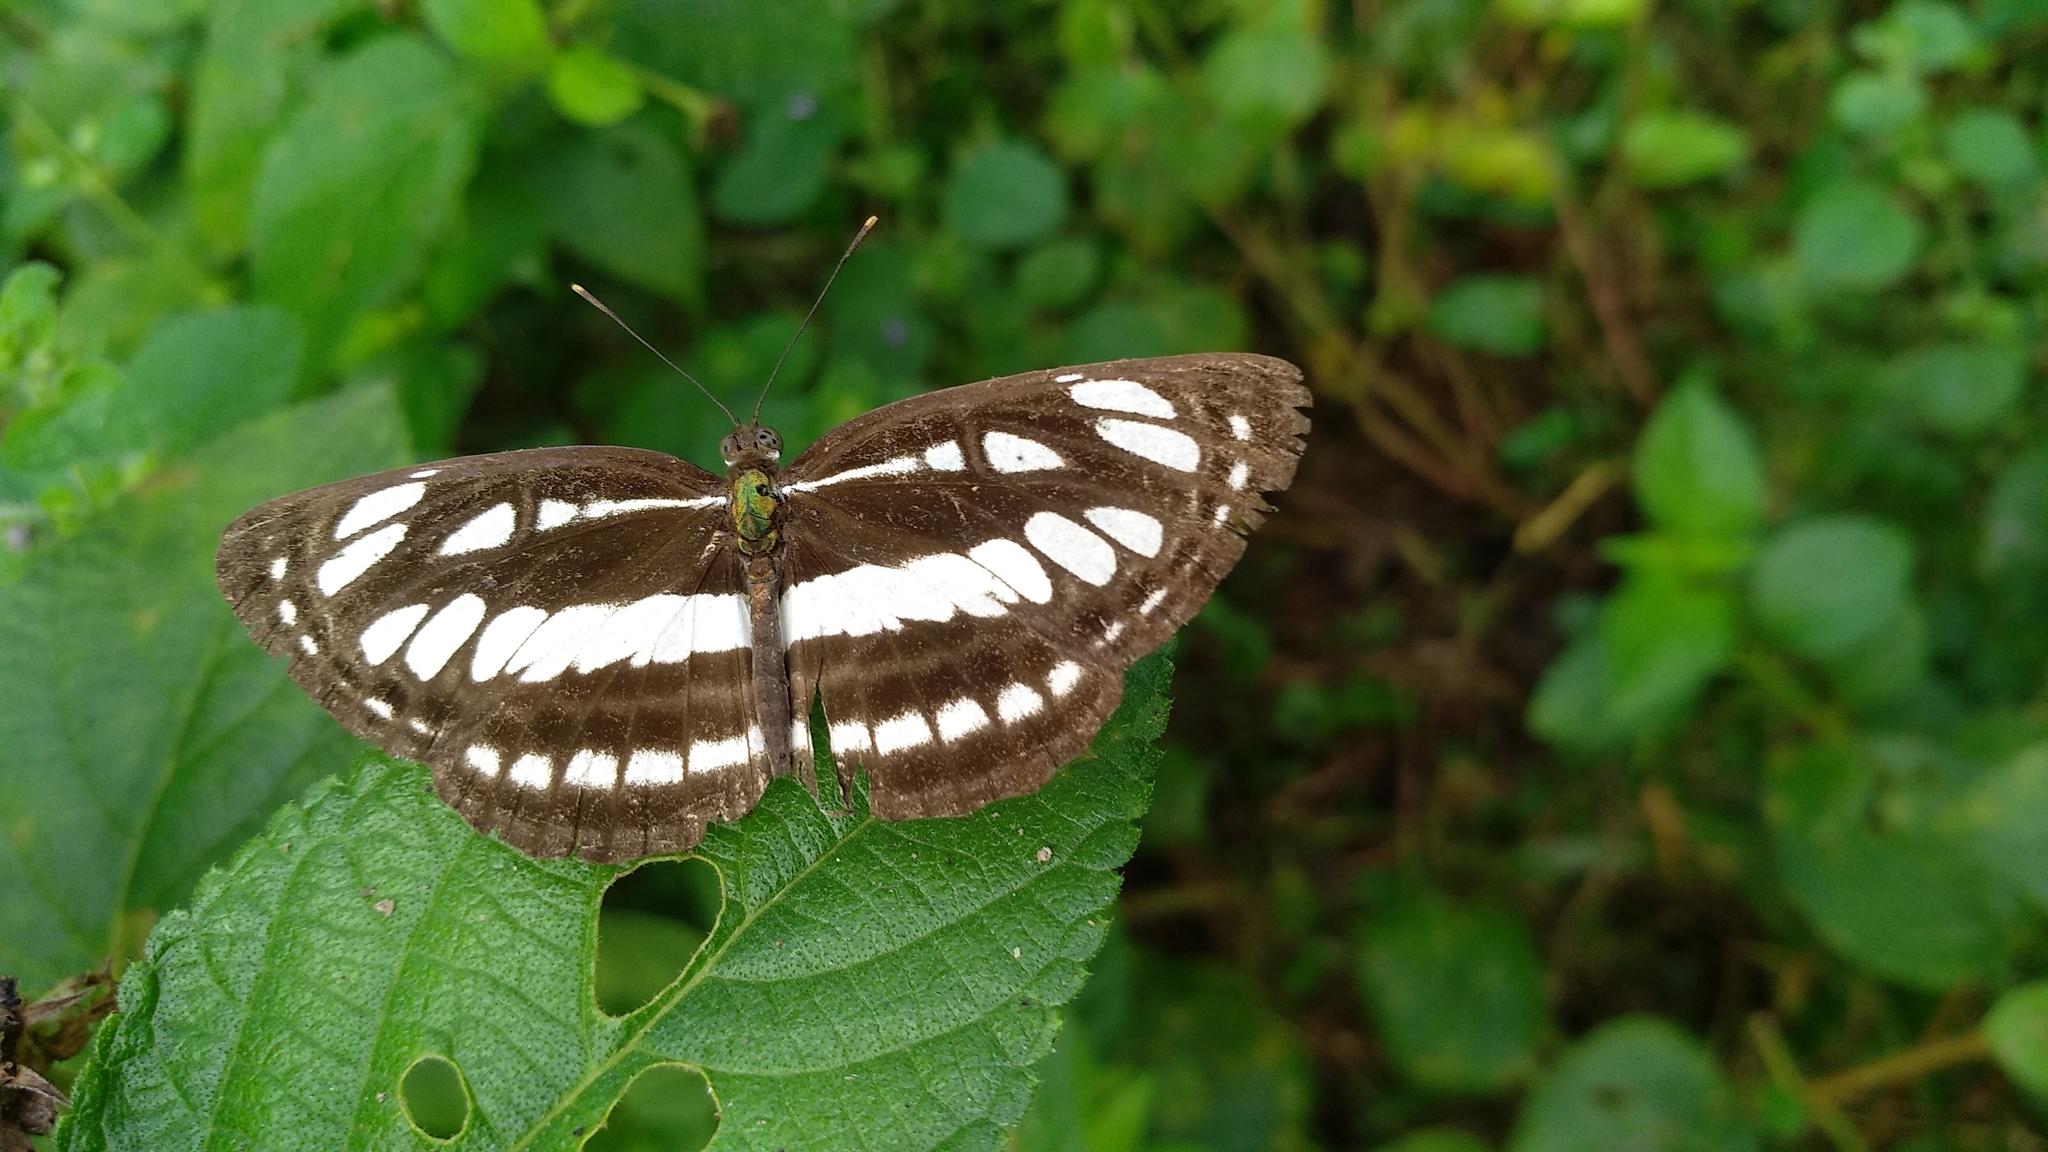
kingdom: Animalia
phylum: Arthropoda
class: Insecta
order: Lepidoptera
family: Nymphalidae
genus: Neptis
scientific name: Neptis hylas
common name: Common sailer
